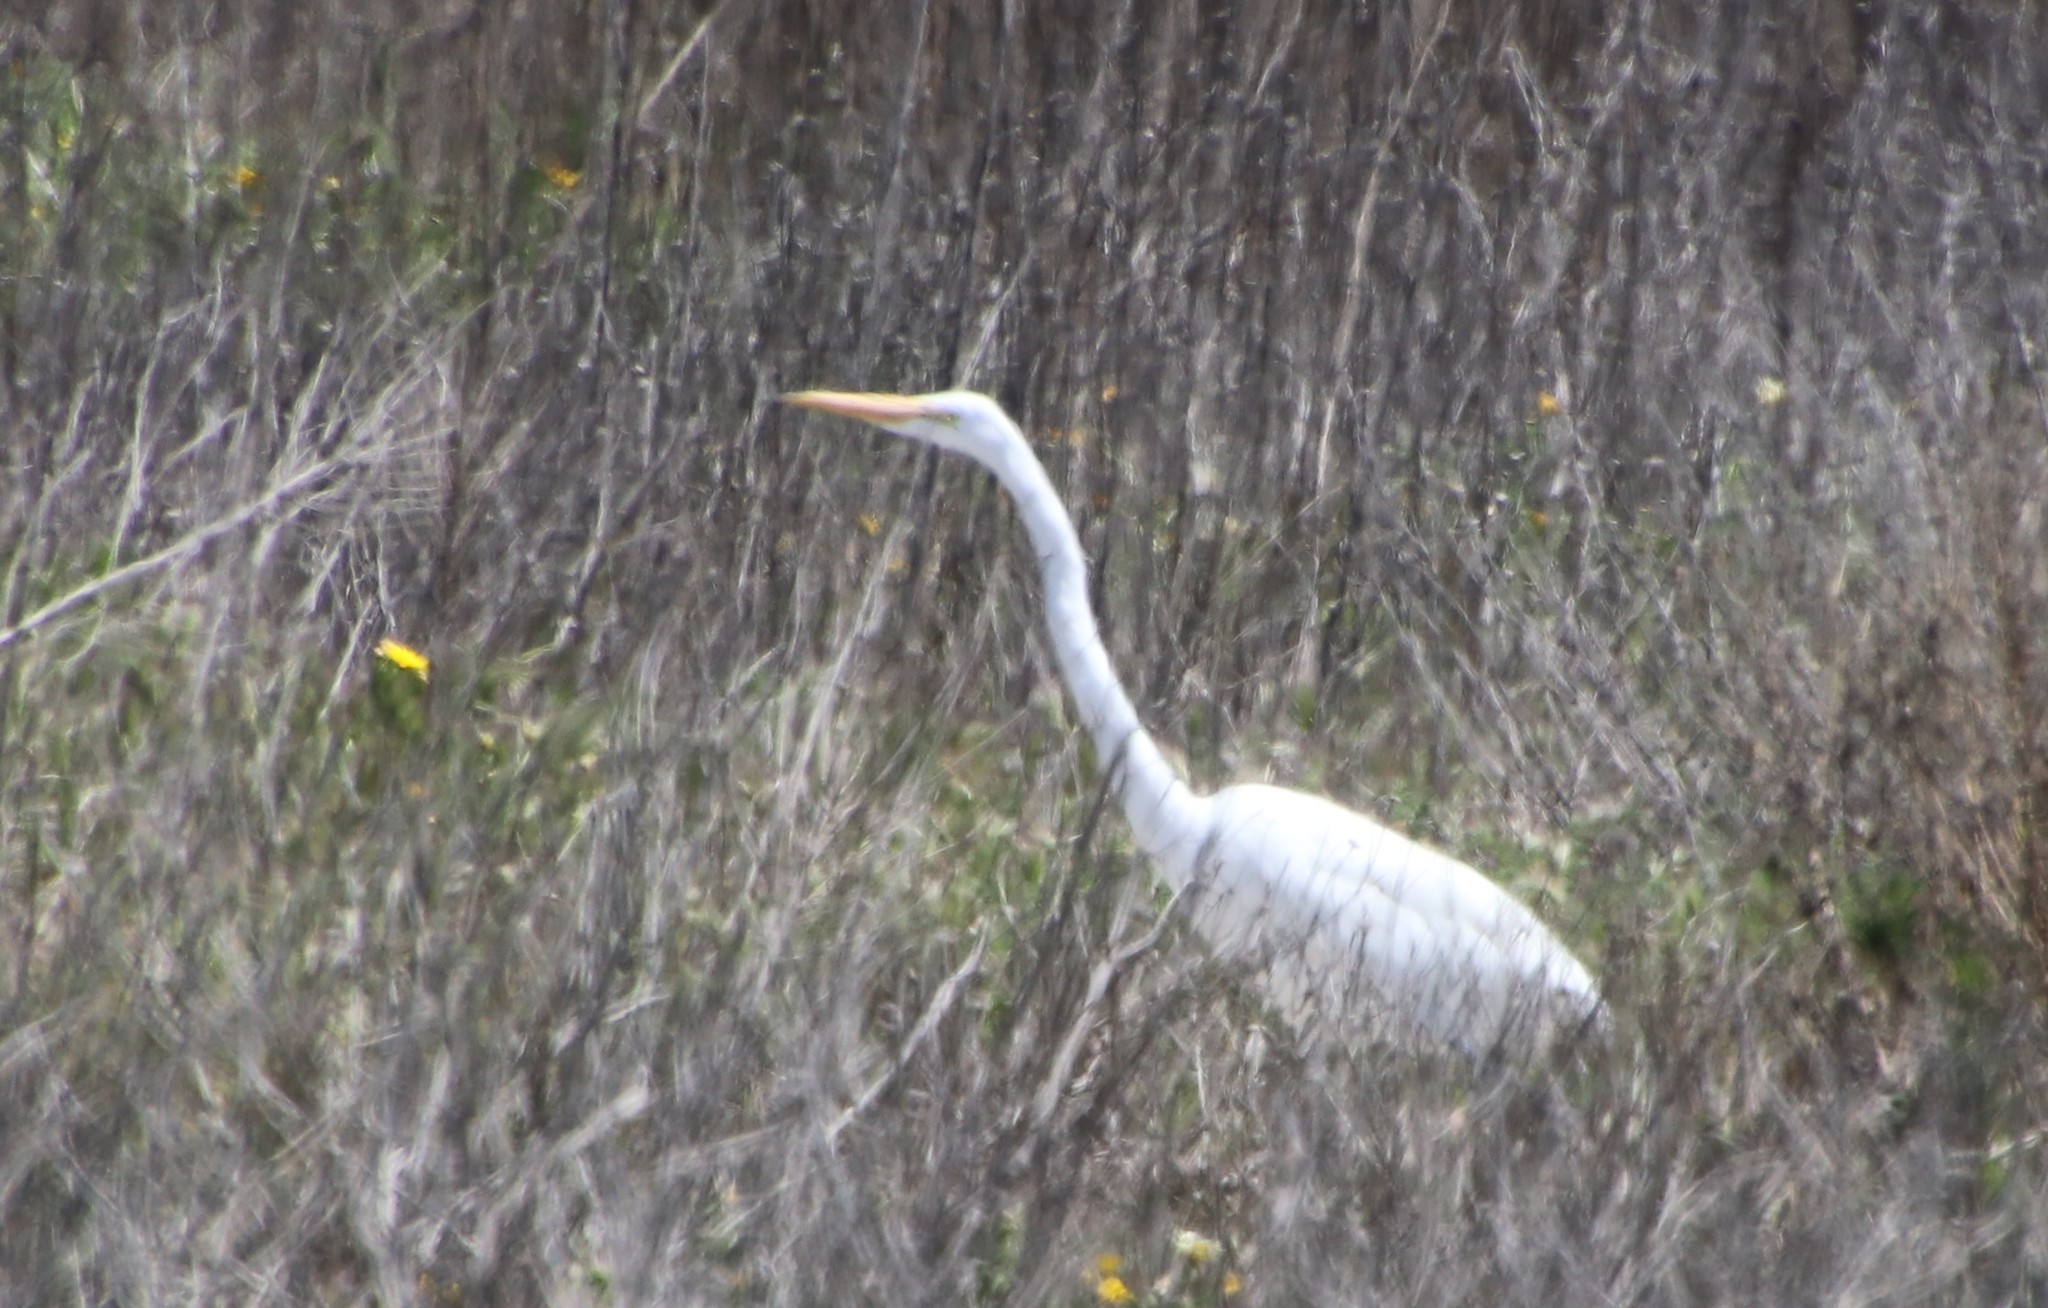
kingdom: Animalia
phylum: Chordata
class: Aves
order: Pelecaniformes
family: Ardeidae
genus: Ardea
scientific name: Ardea alba
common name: Great egret
